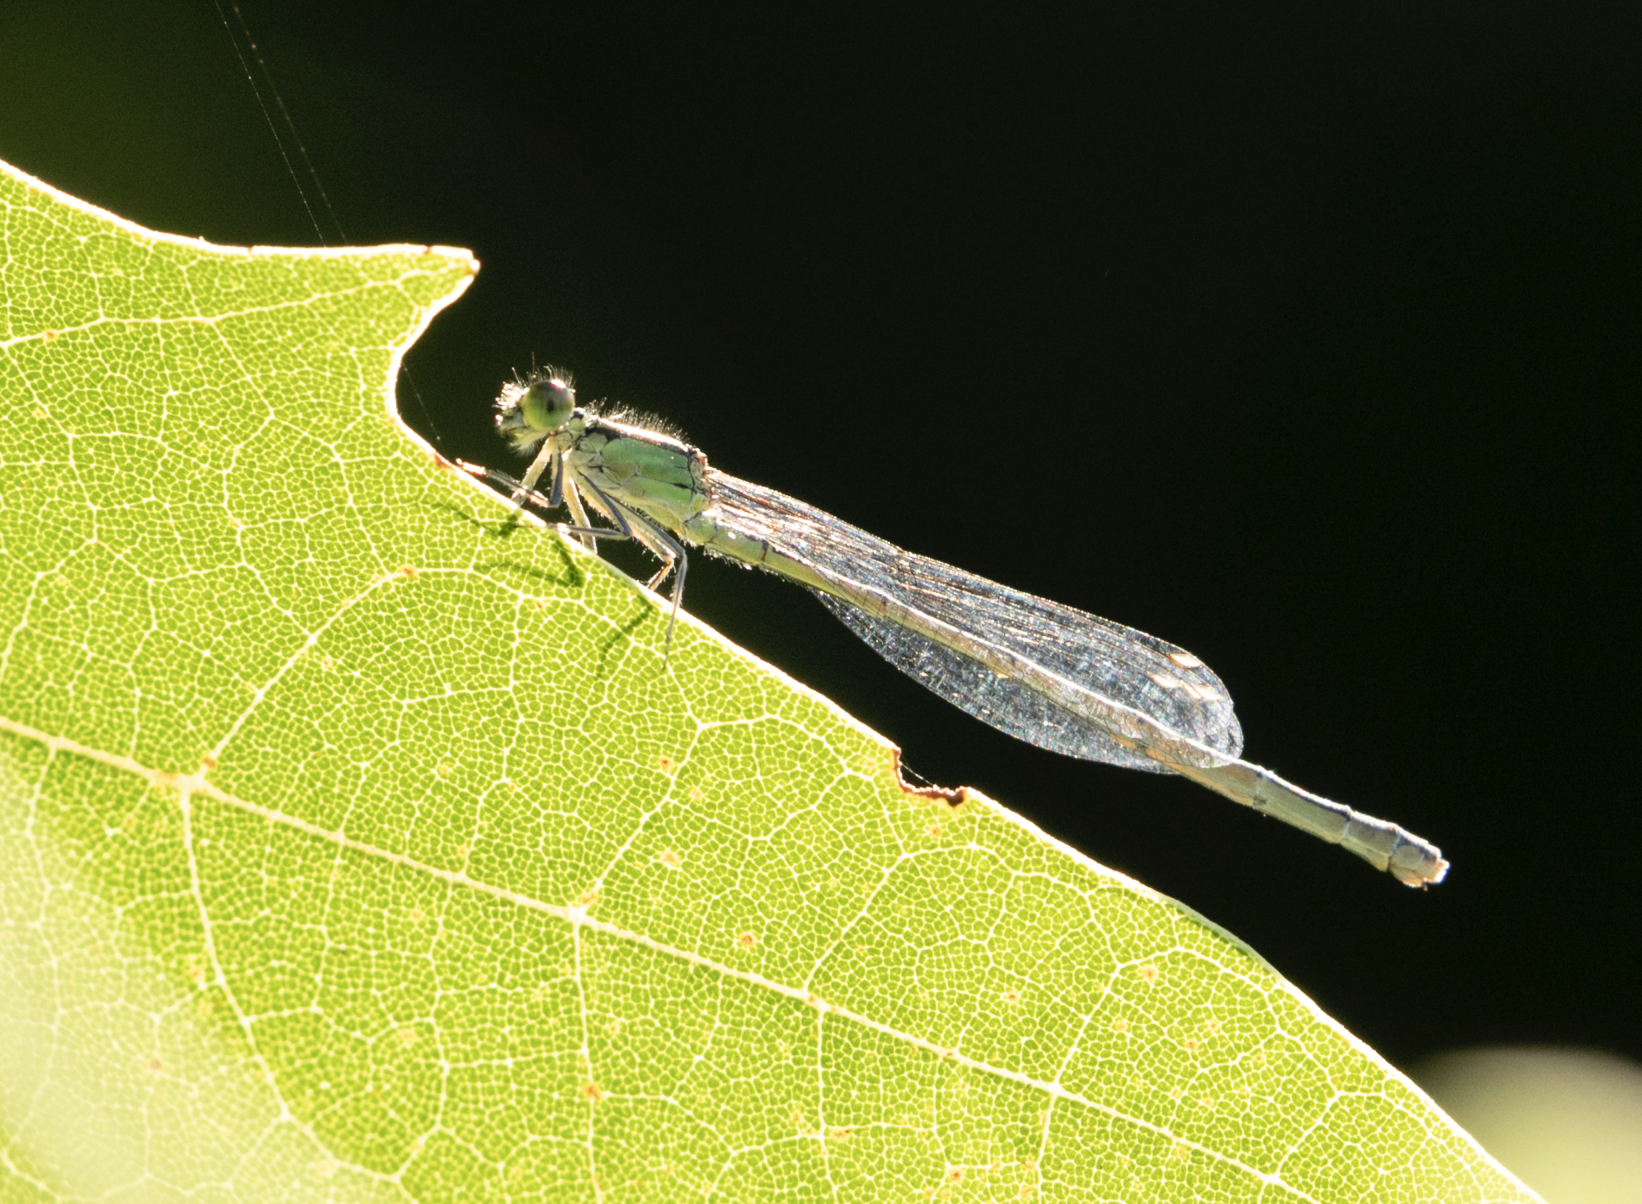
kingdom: Animalia
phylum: Arthropoda
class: Insecta
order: Odonata
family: Coenagrionidae
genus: Ischnura
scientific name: Ischnura elegans
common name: Blue-tailed damselfly
